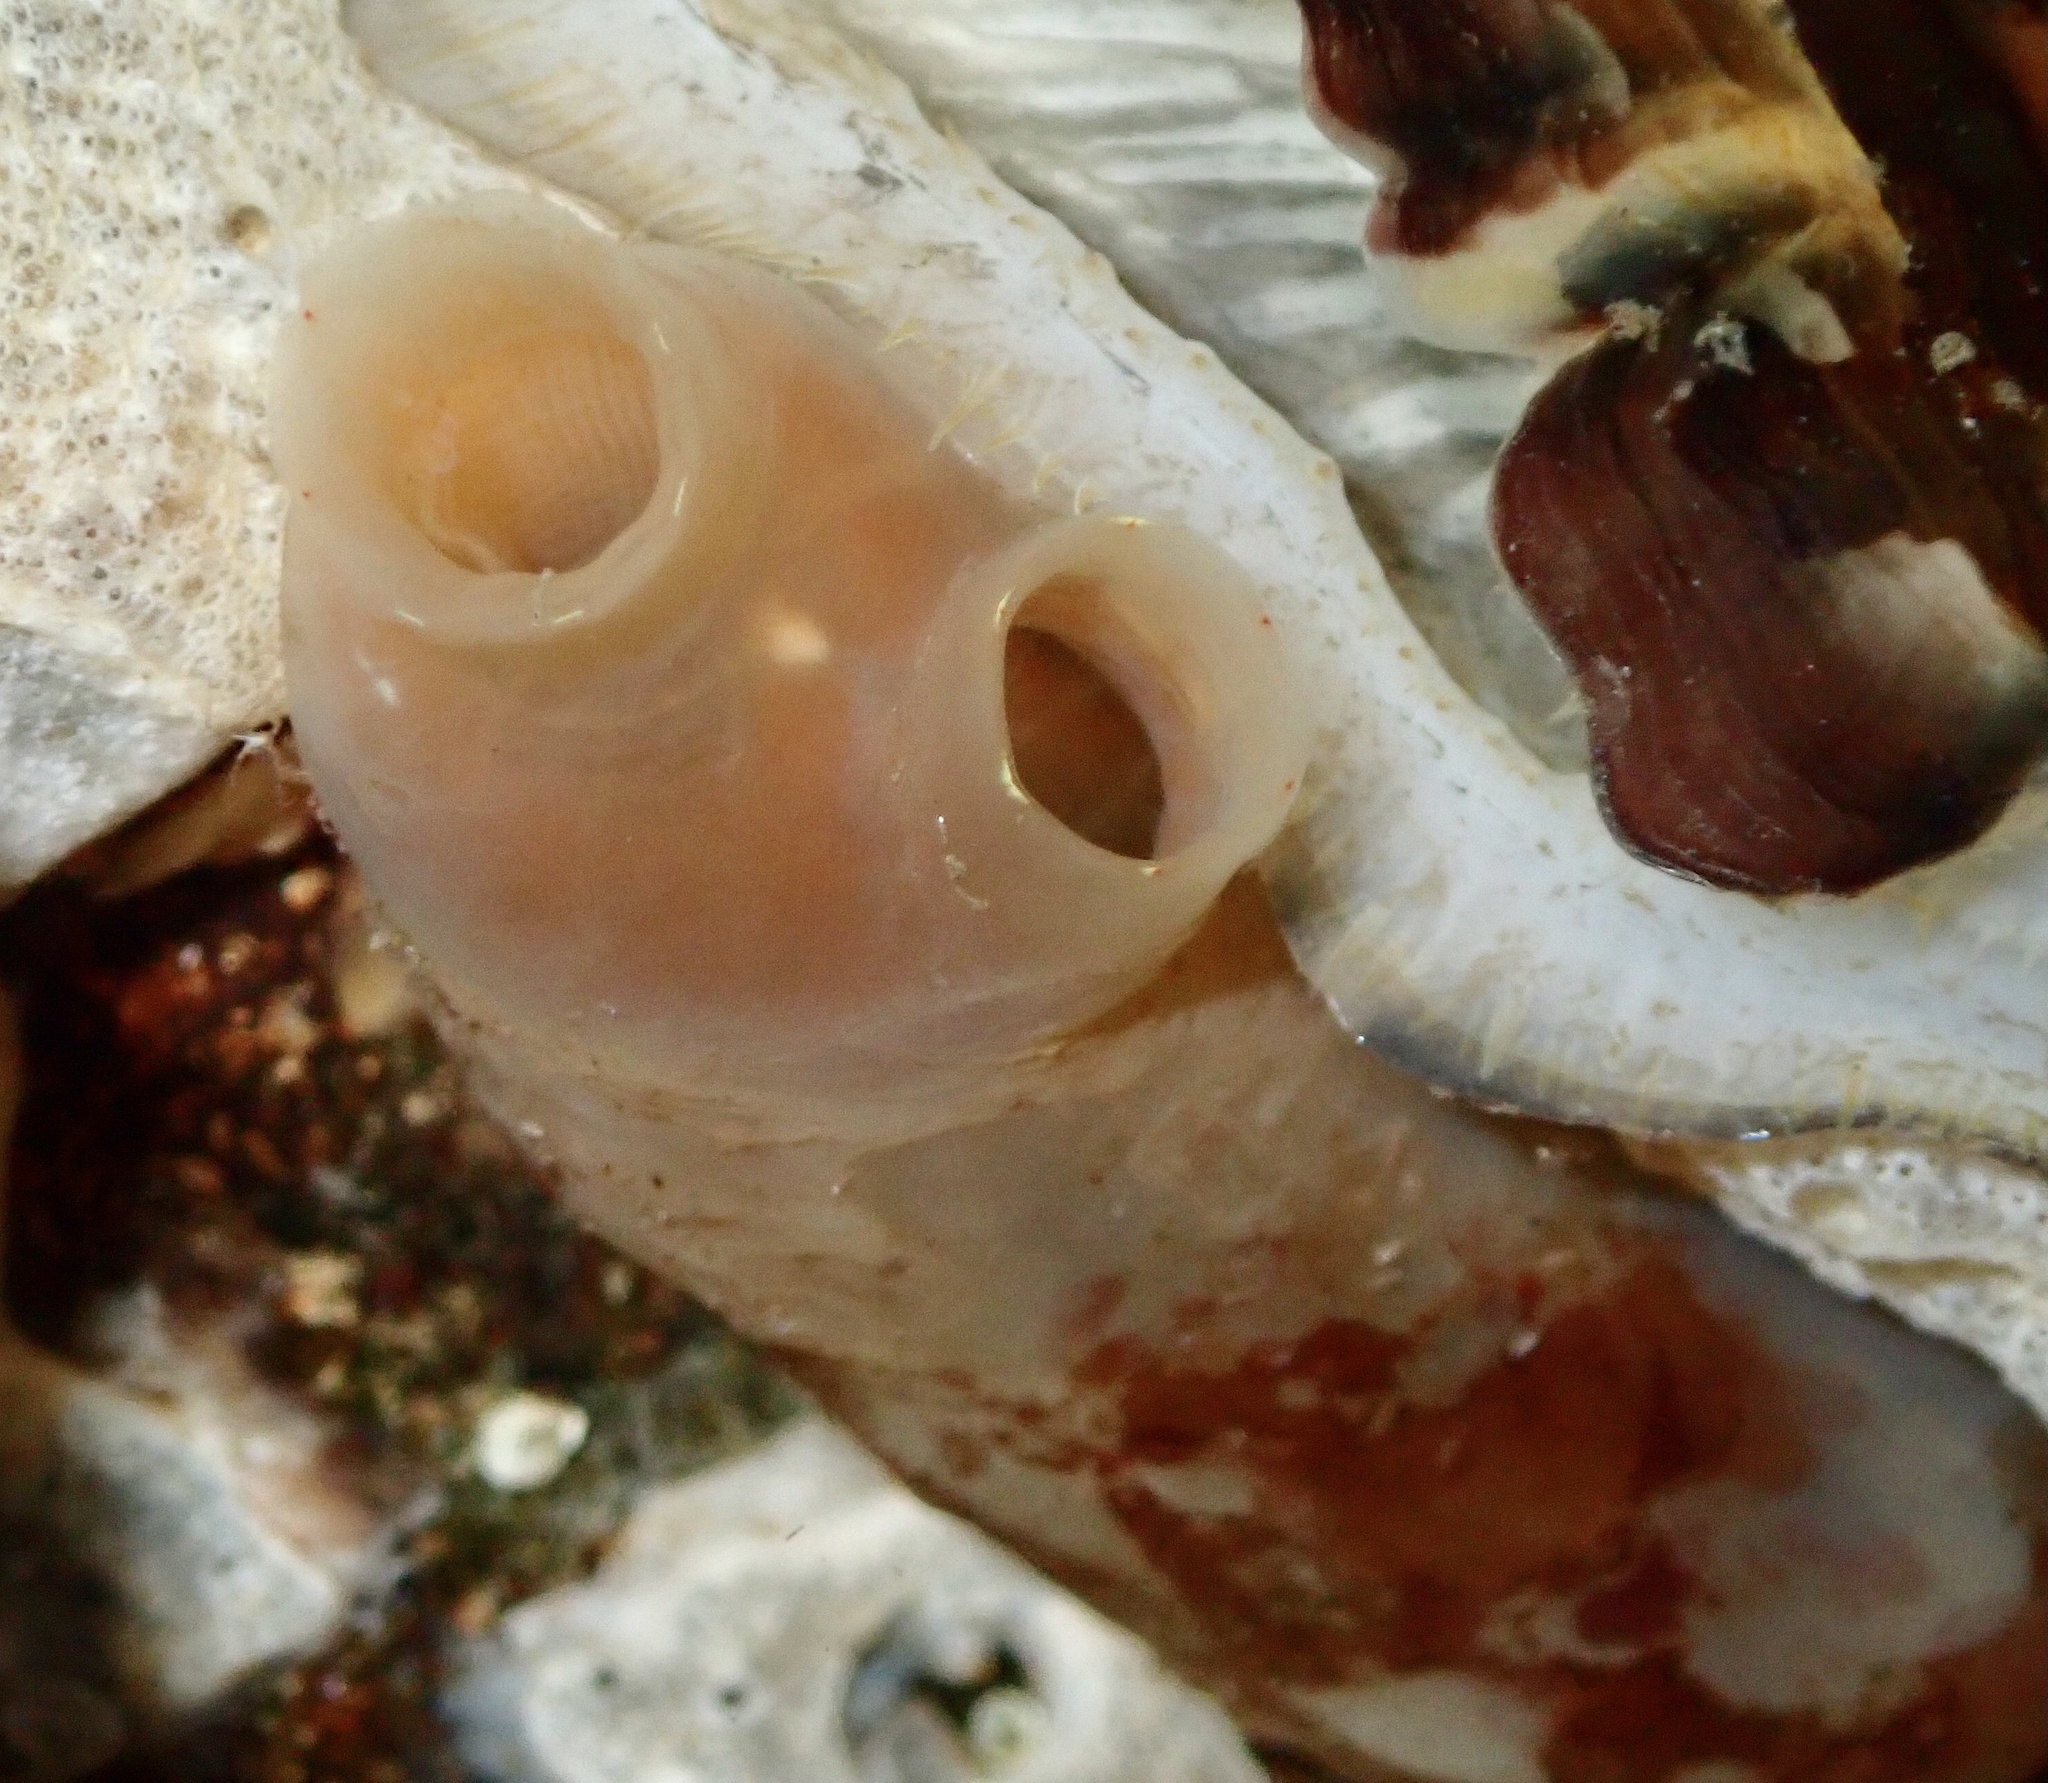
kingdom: Animalia
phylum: Chordata
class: Ascidiacea
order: Phlebobranchia
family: Cionidae
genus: Ciona
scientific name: Ciona intestinalis
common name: Vase tunicate
